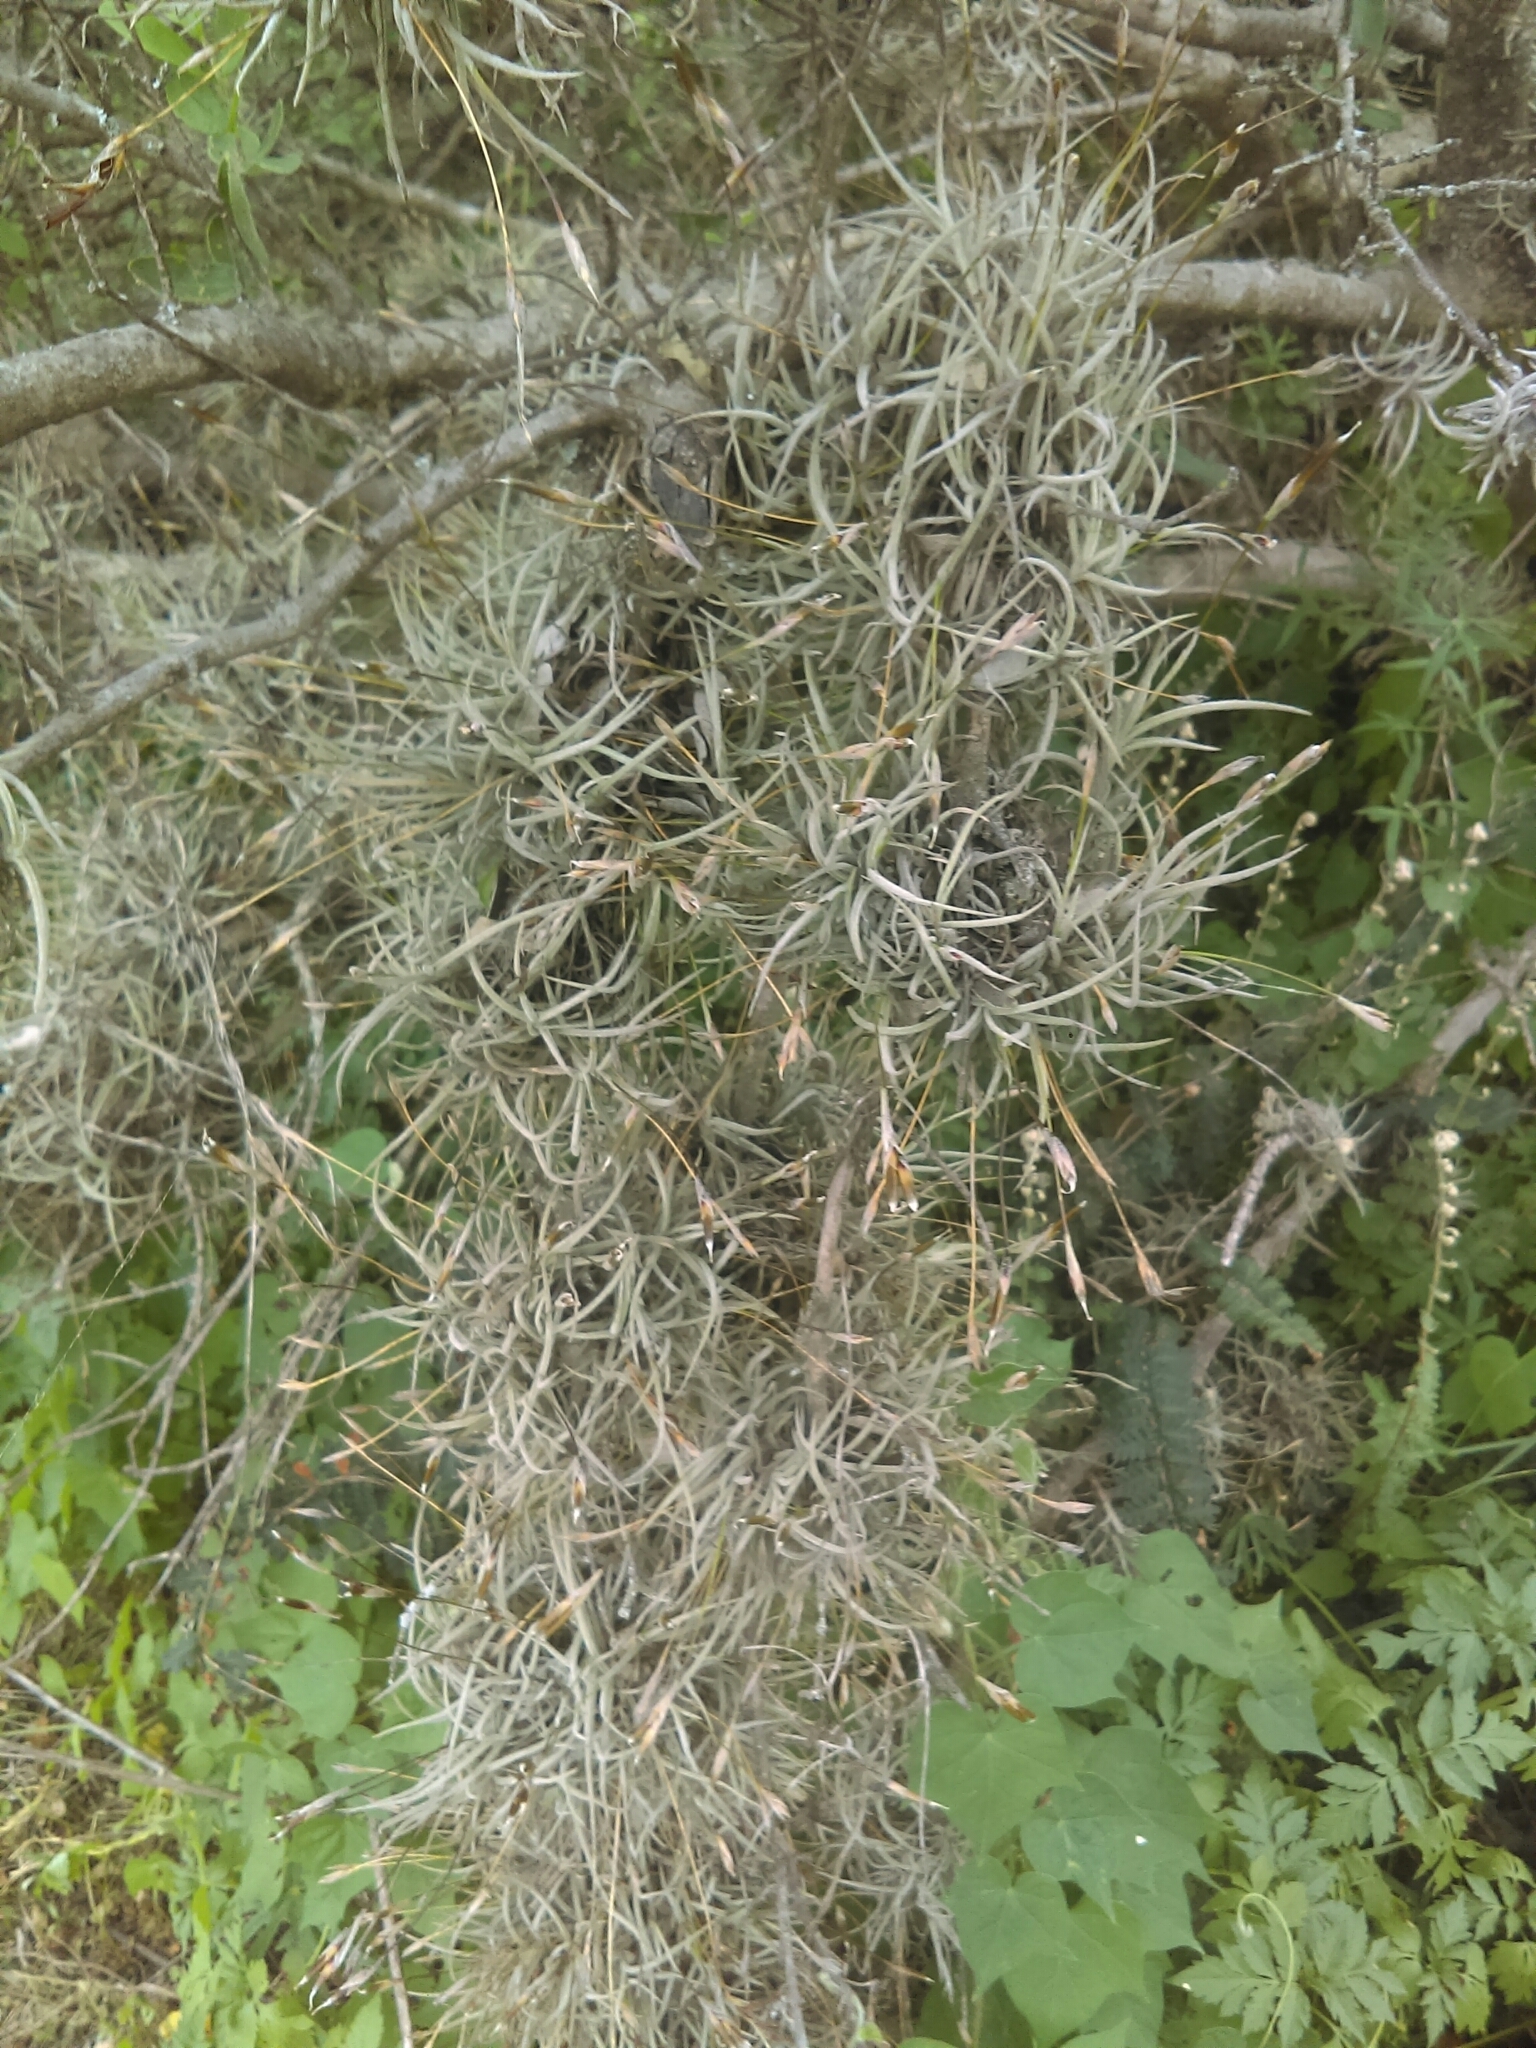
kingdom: Plantae
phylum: Tracheophyta
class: Liliopsida
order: Poales
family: Bromeliaceae
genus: Tillandsia
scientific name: Tillandsia recurvata
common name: Small ballmoss
